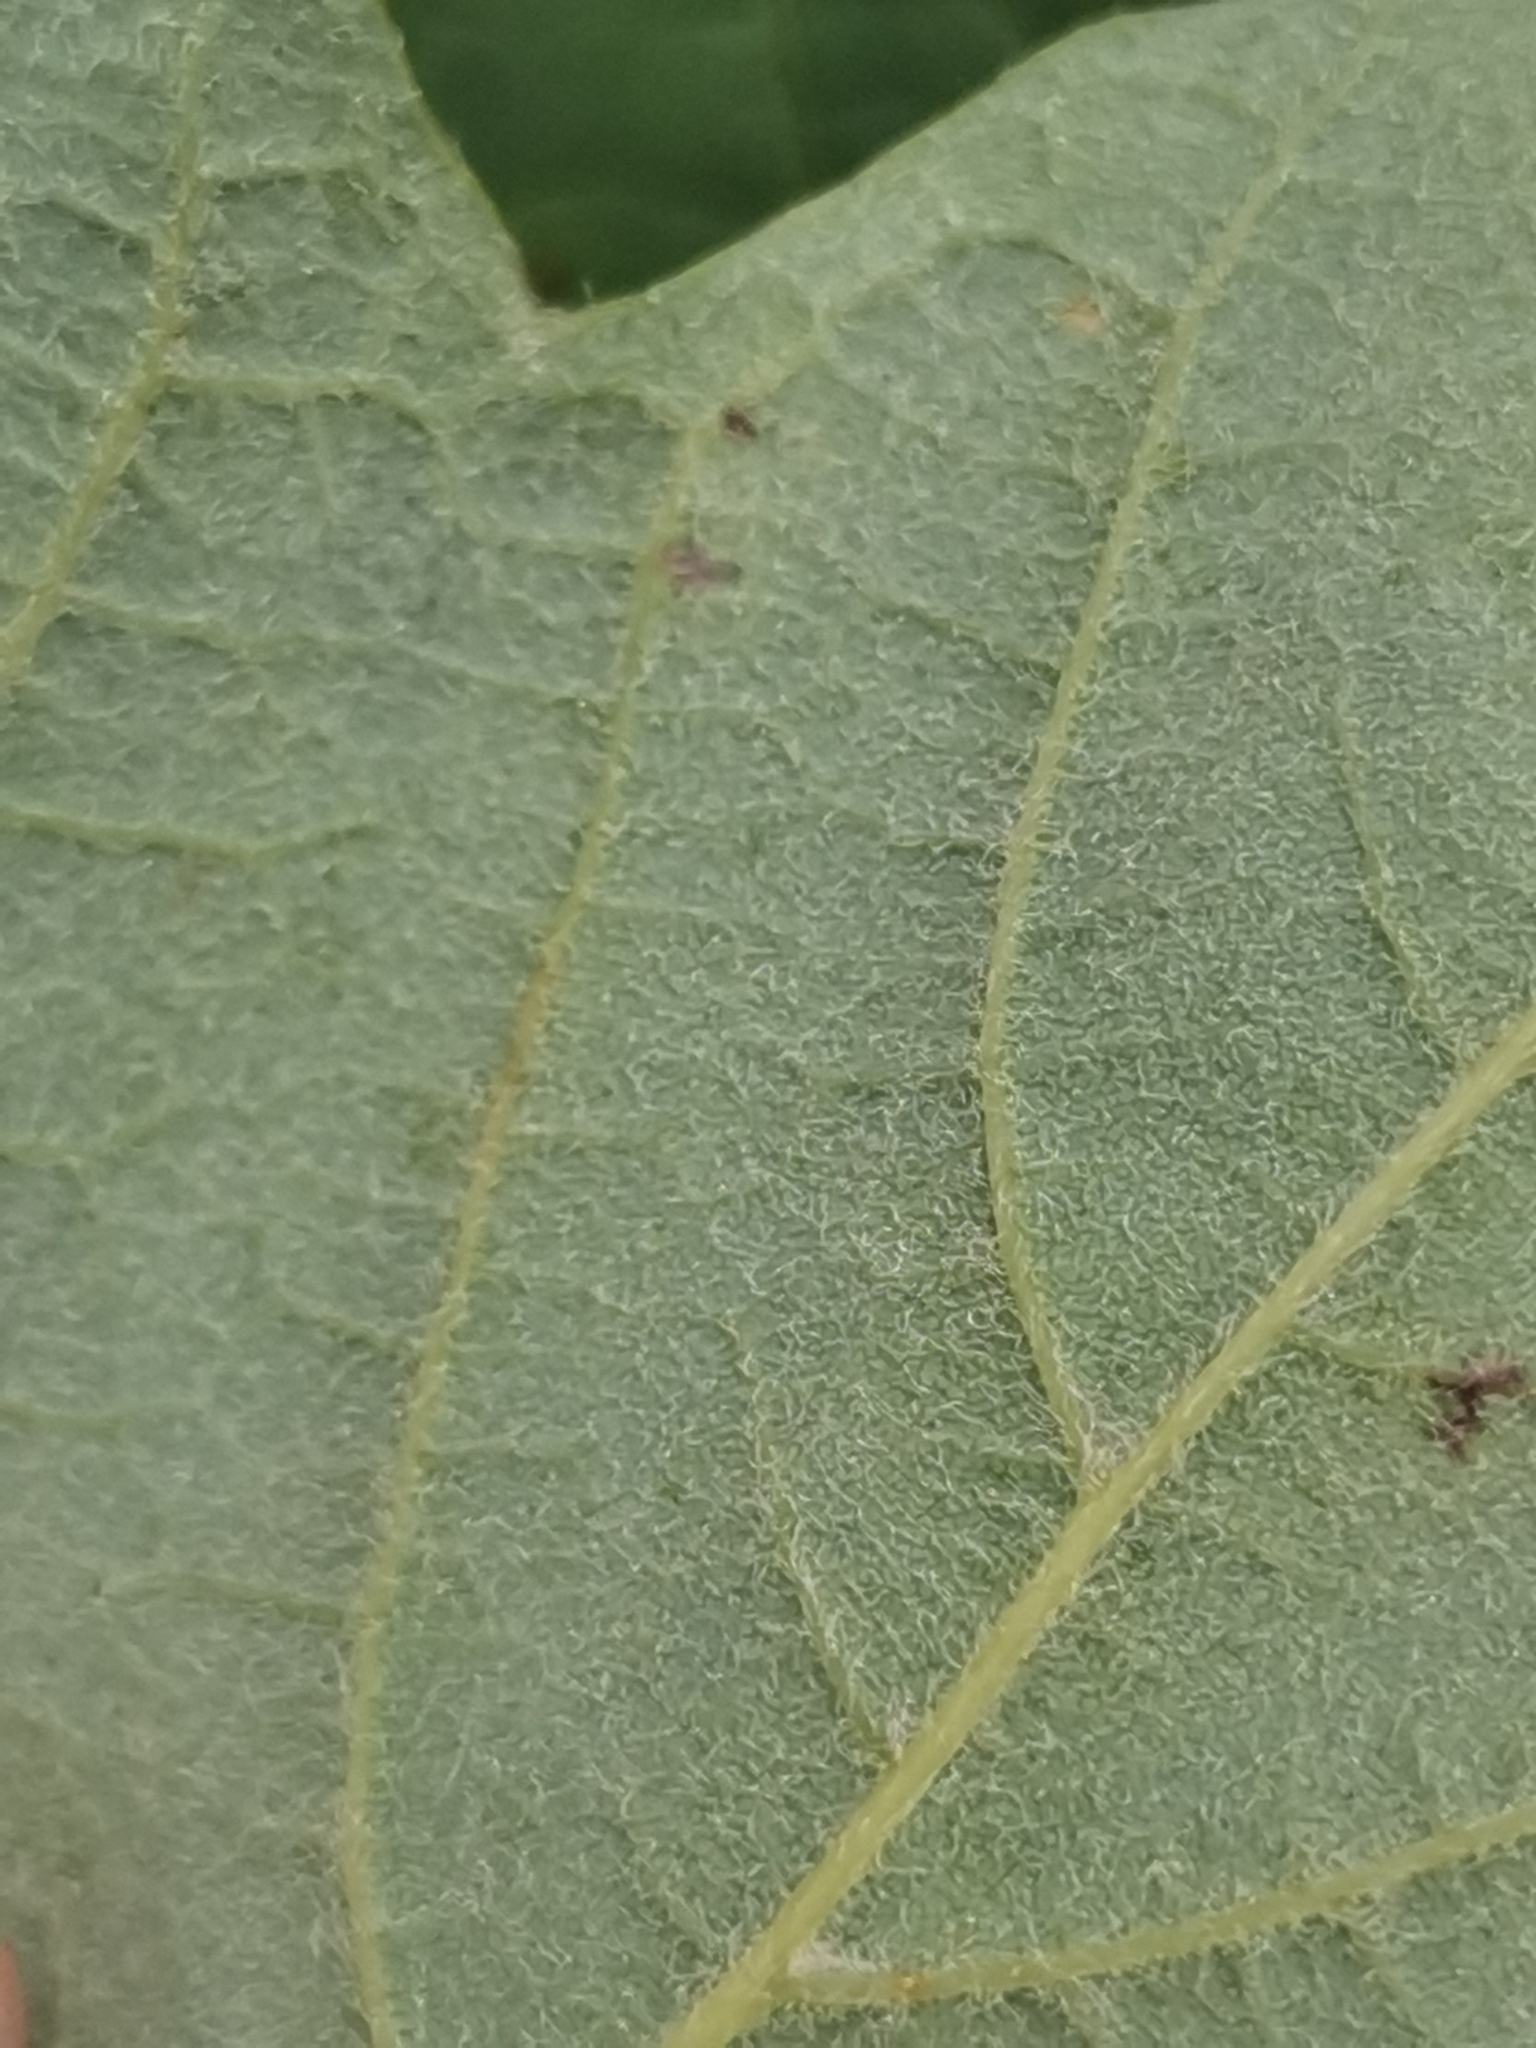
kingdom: Plantae
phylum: Tracheophyta
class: Magnoliopsida
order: Sapindales
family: Sapindaceae
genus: Acer
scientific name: Acer opalus
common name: Italian maple
